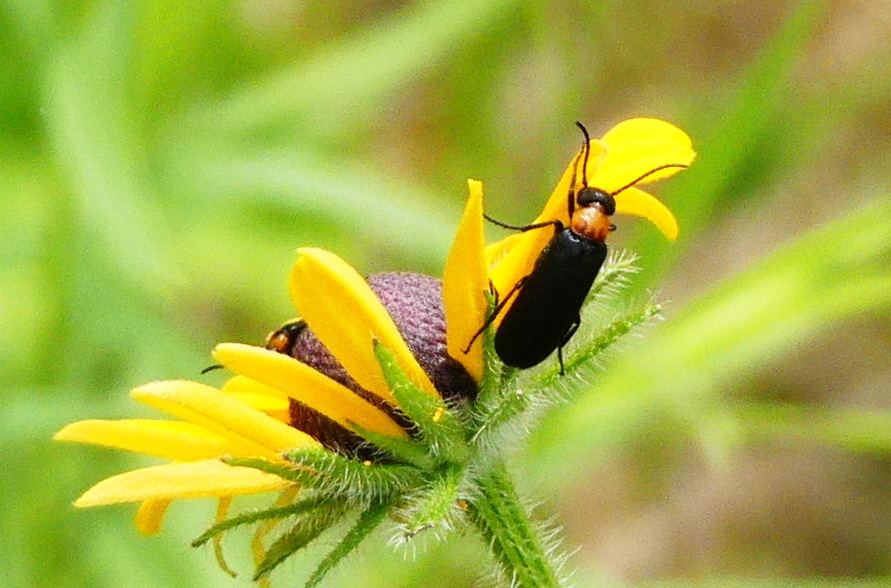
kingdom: Animalia
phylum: Arthropoda
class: Insecta
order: Coleoptera
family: Meloidae
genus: Nemognatha
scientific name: Nemognatha nemorensis
